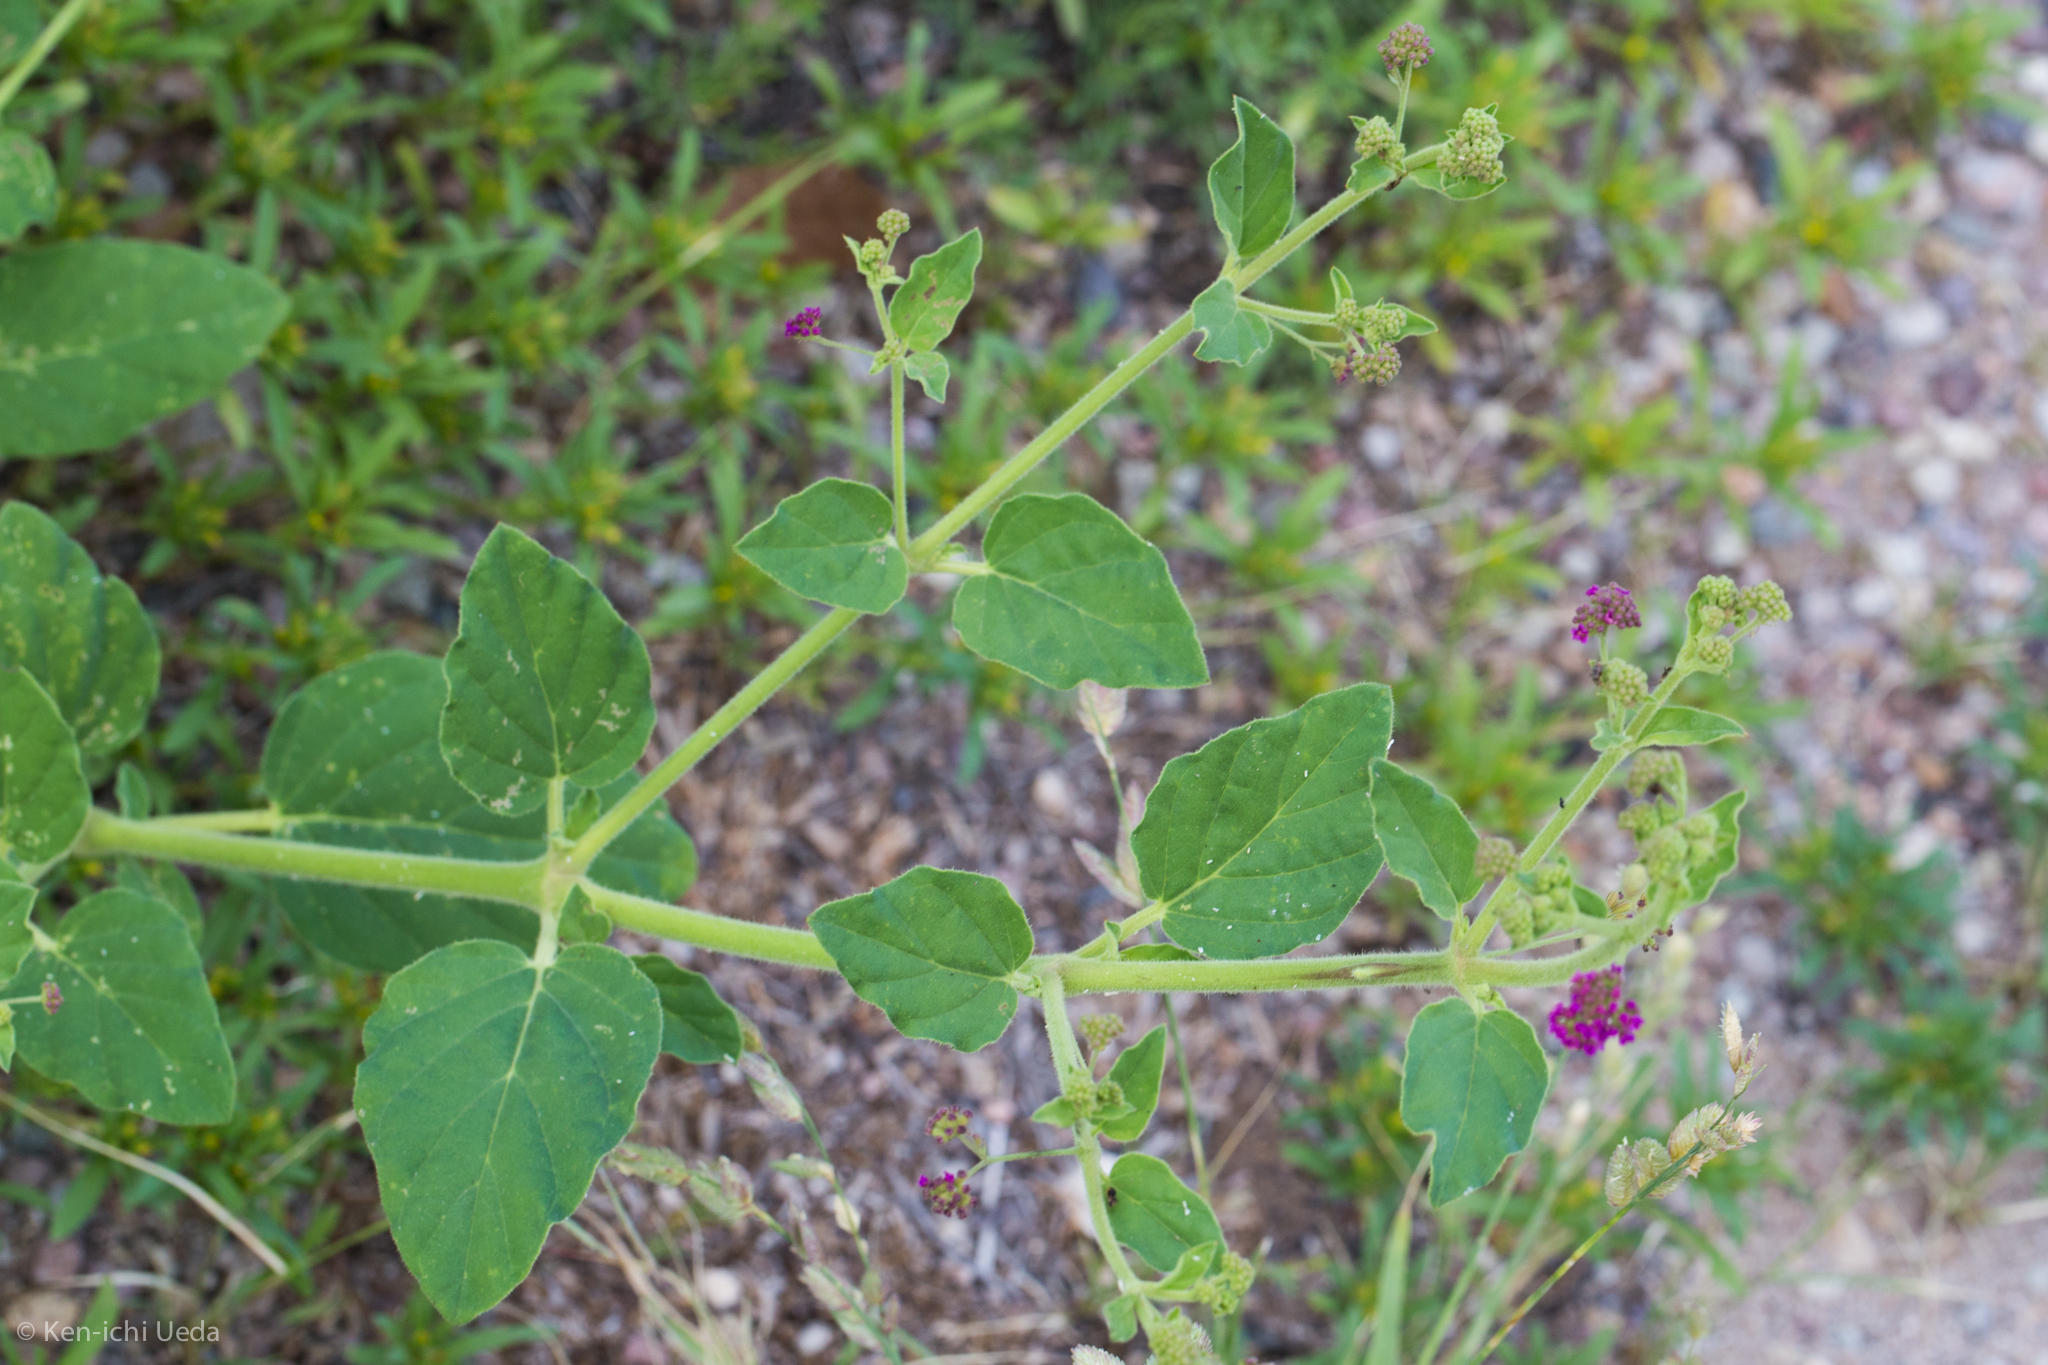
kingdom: Plantae
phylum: Tracheophyta
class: Magnoliopsida
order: Caryophyllales
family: Nyctaginaceae
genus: Boerhavia
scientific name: Boerhavia coccinea
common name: Scarlet spiderling
